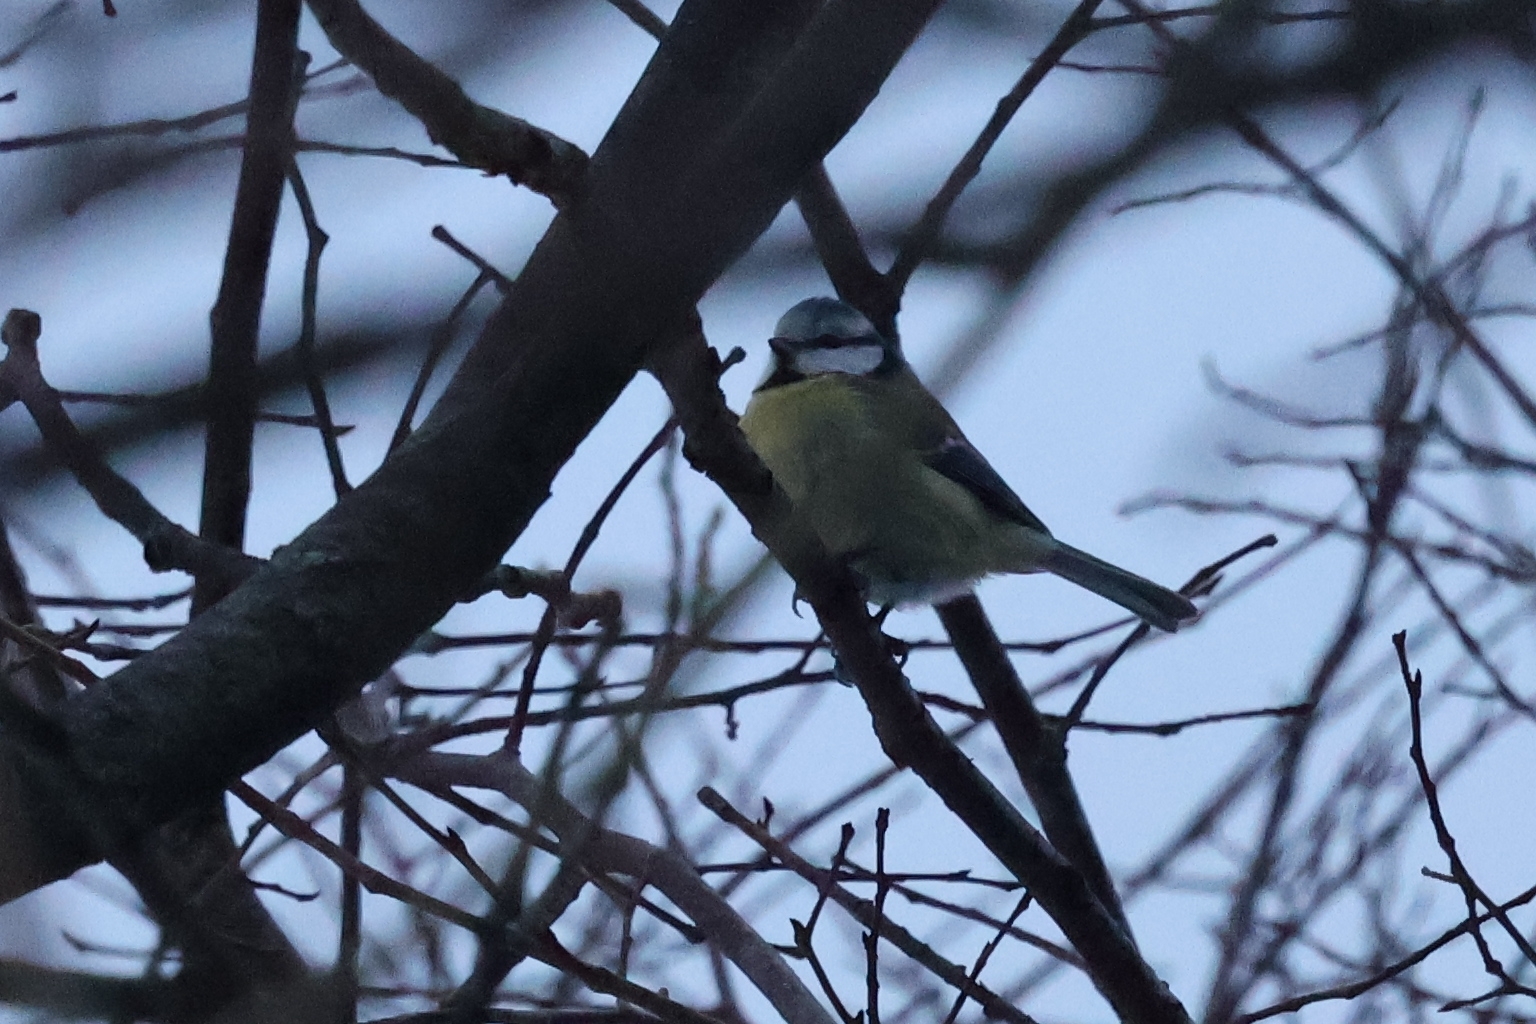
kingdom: Animalia
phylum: Chordata
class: Aves
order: Passeriformes
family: Paridae
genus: Cyanistes
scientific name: Cyanistes caeruleus
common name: Eurasian blue tit
